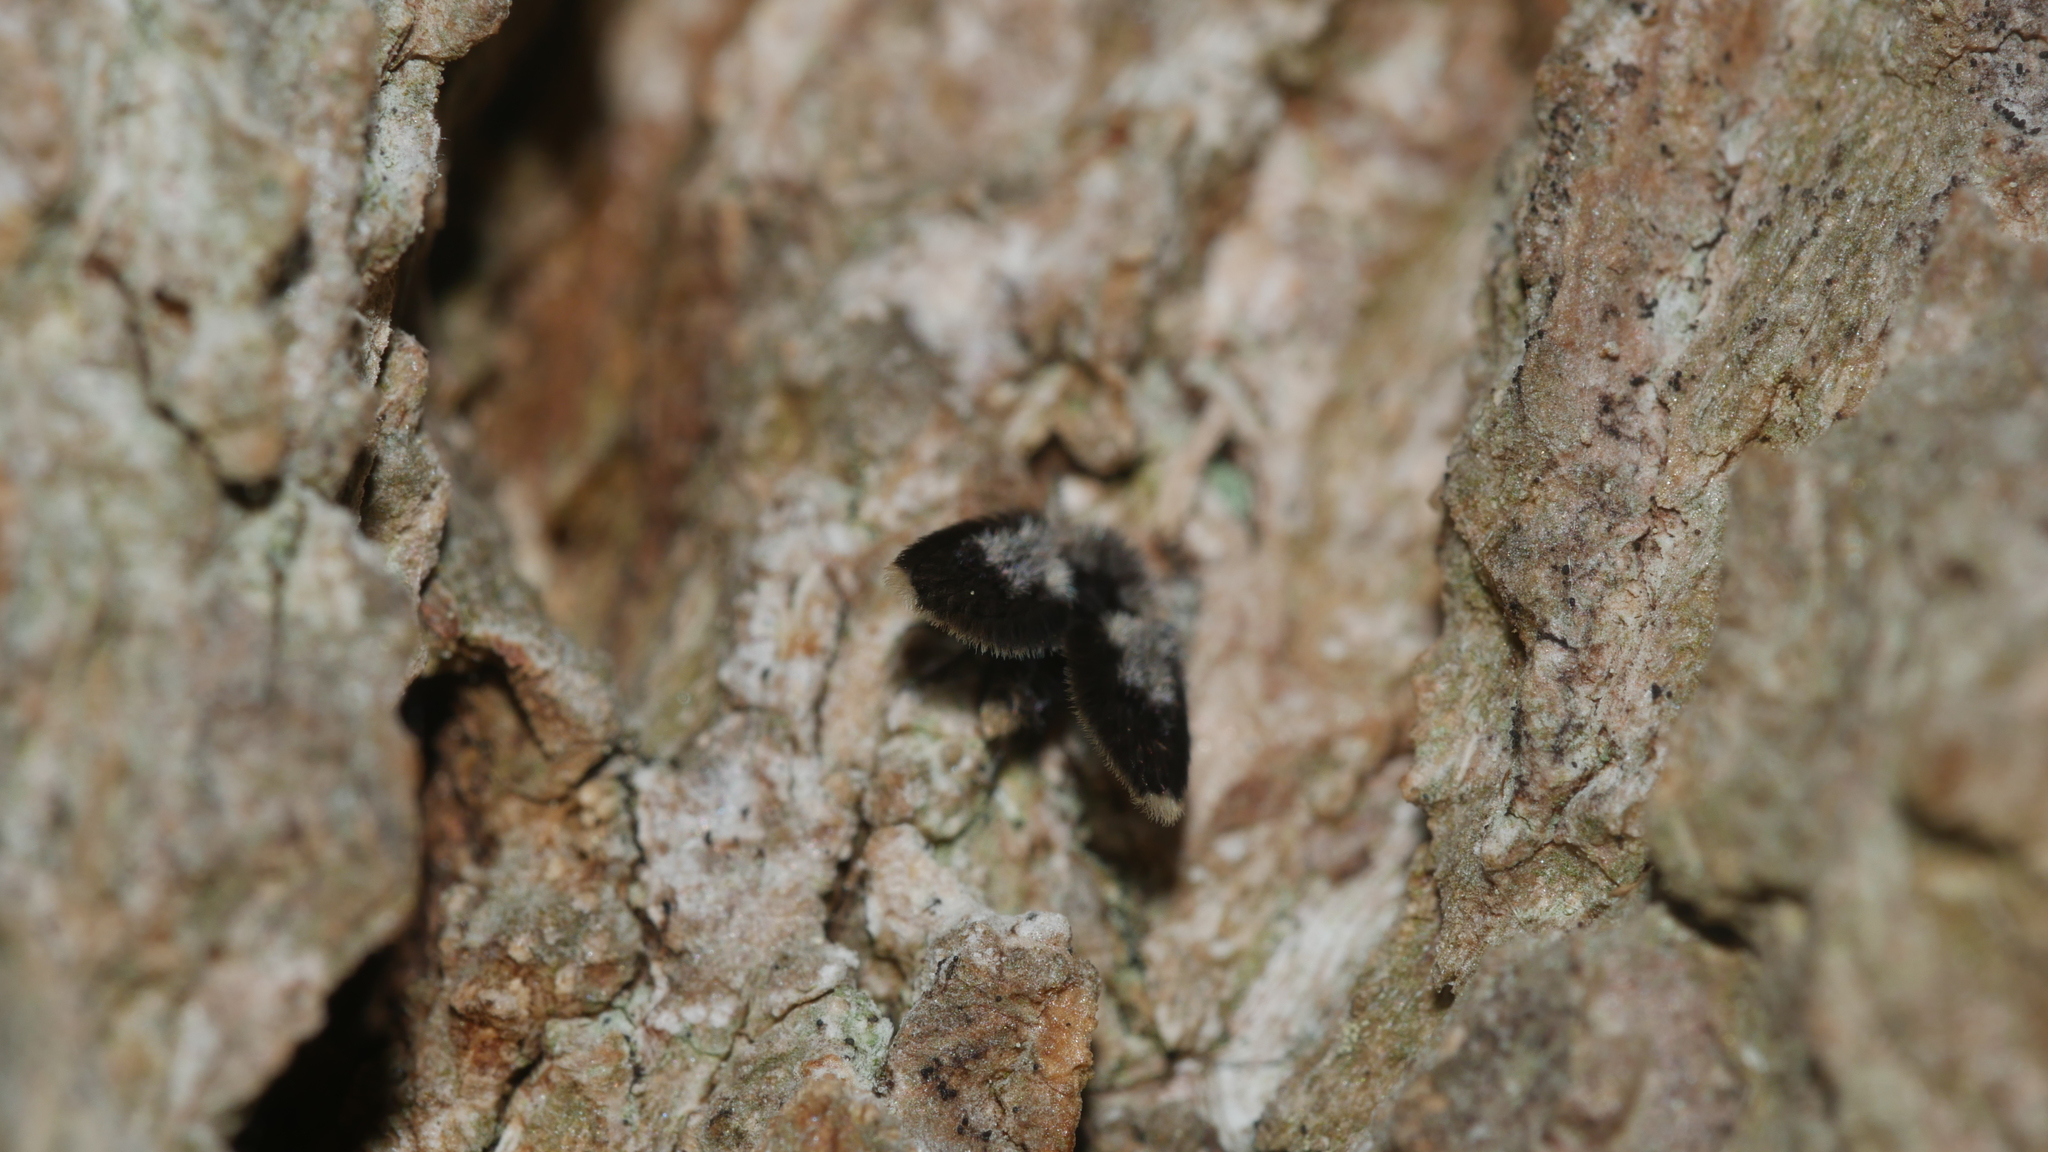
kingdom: Animalia
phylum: Arthropoda
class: Insecta
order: Diptera
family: Psychodidae
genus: Lepiseodina
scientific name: Lepiseodina
